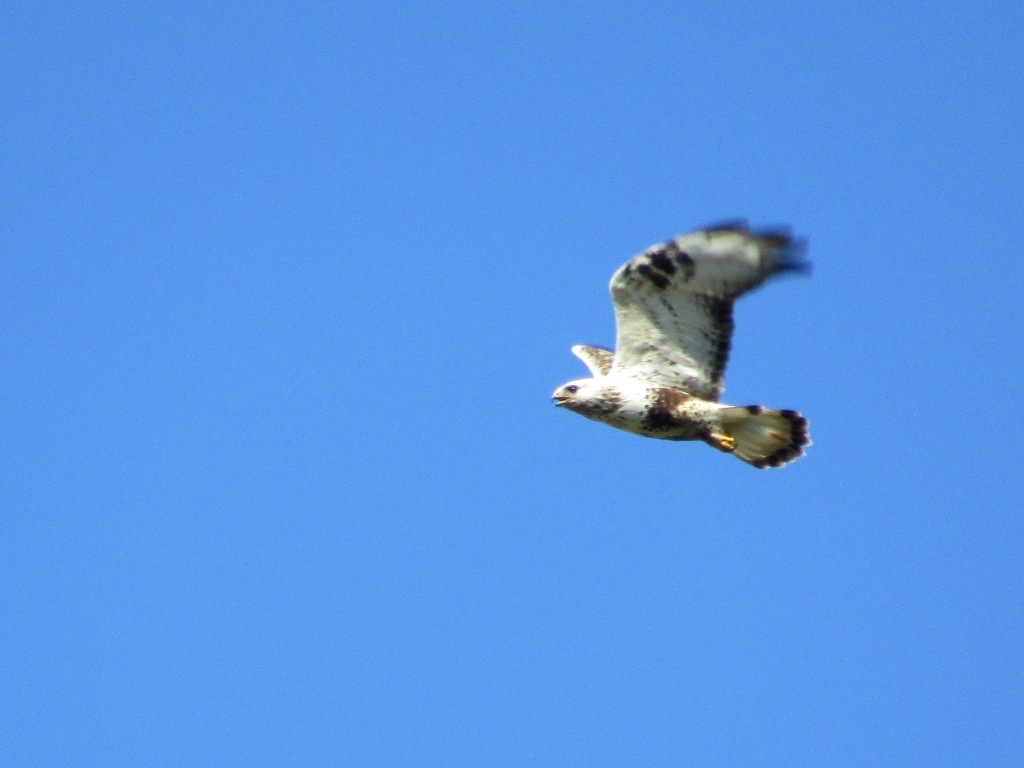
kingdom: Animalia
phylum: Chordata
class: Aves
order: Accipitriformes
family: Accipitridae
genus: Buteo
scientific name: Buteo lagopus
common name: Rough-legged buzzard
